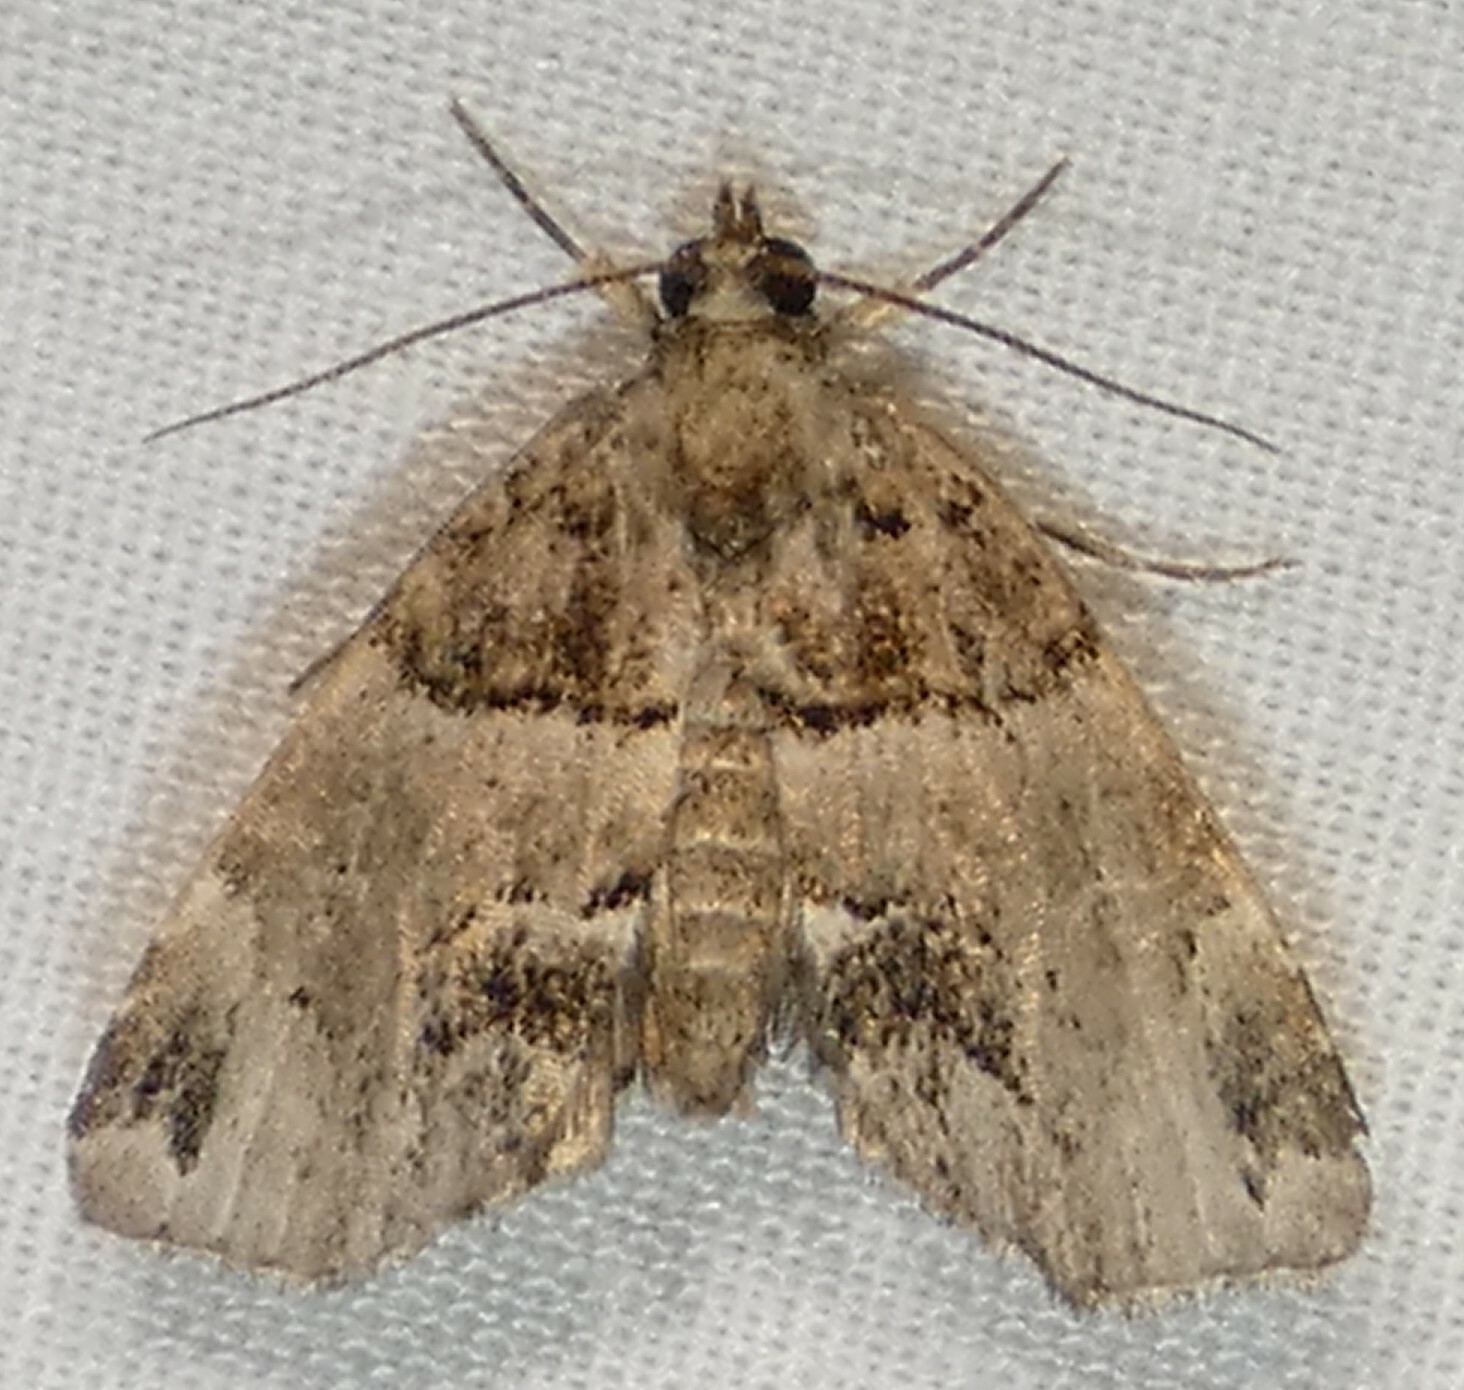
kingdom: Animalia
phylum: Arthropoda
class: Insecta
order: Lepidoptera
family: Erebidae
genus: Cutina
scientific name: Cutina distincta
